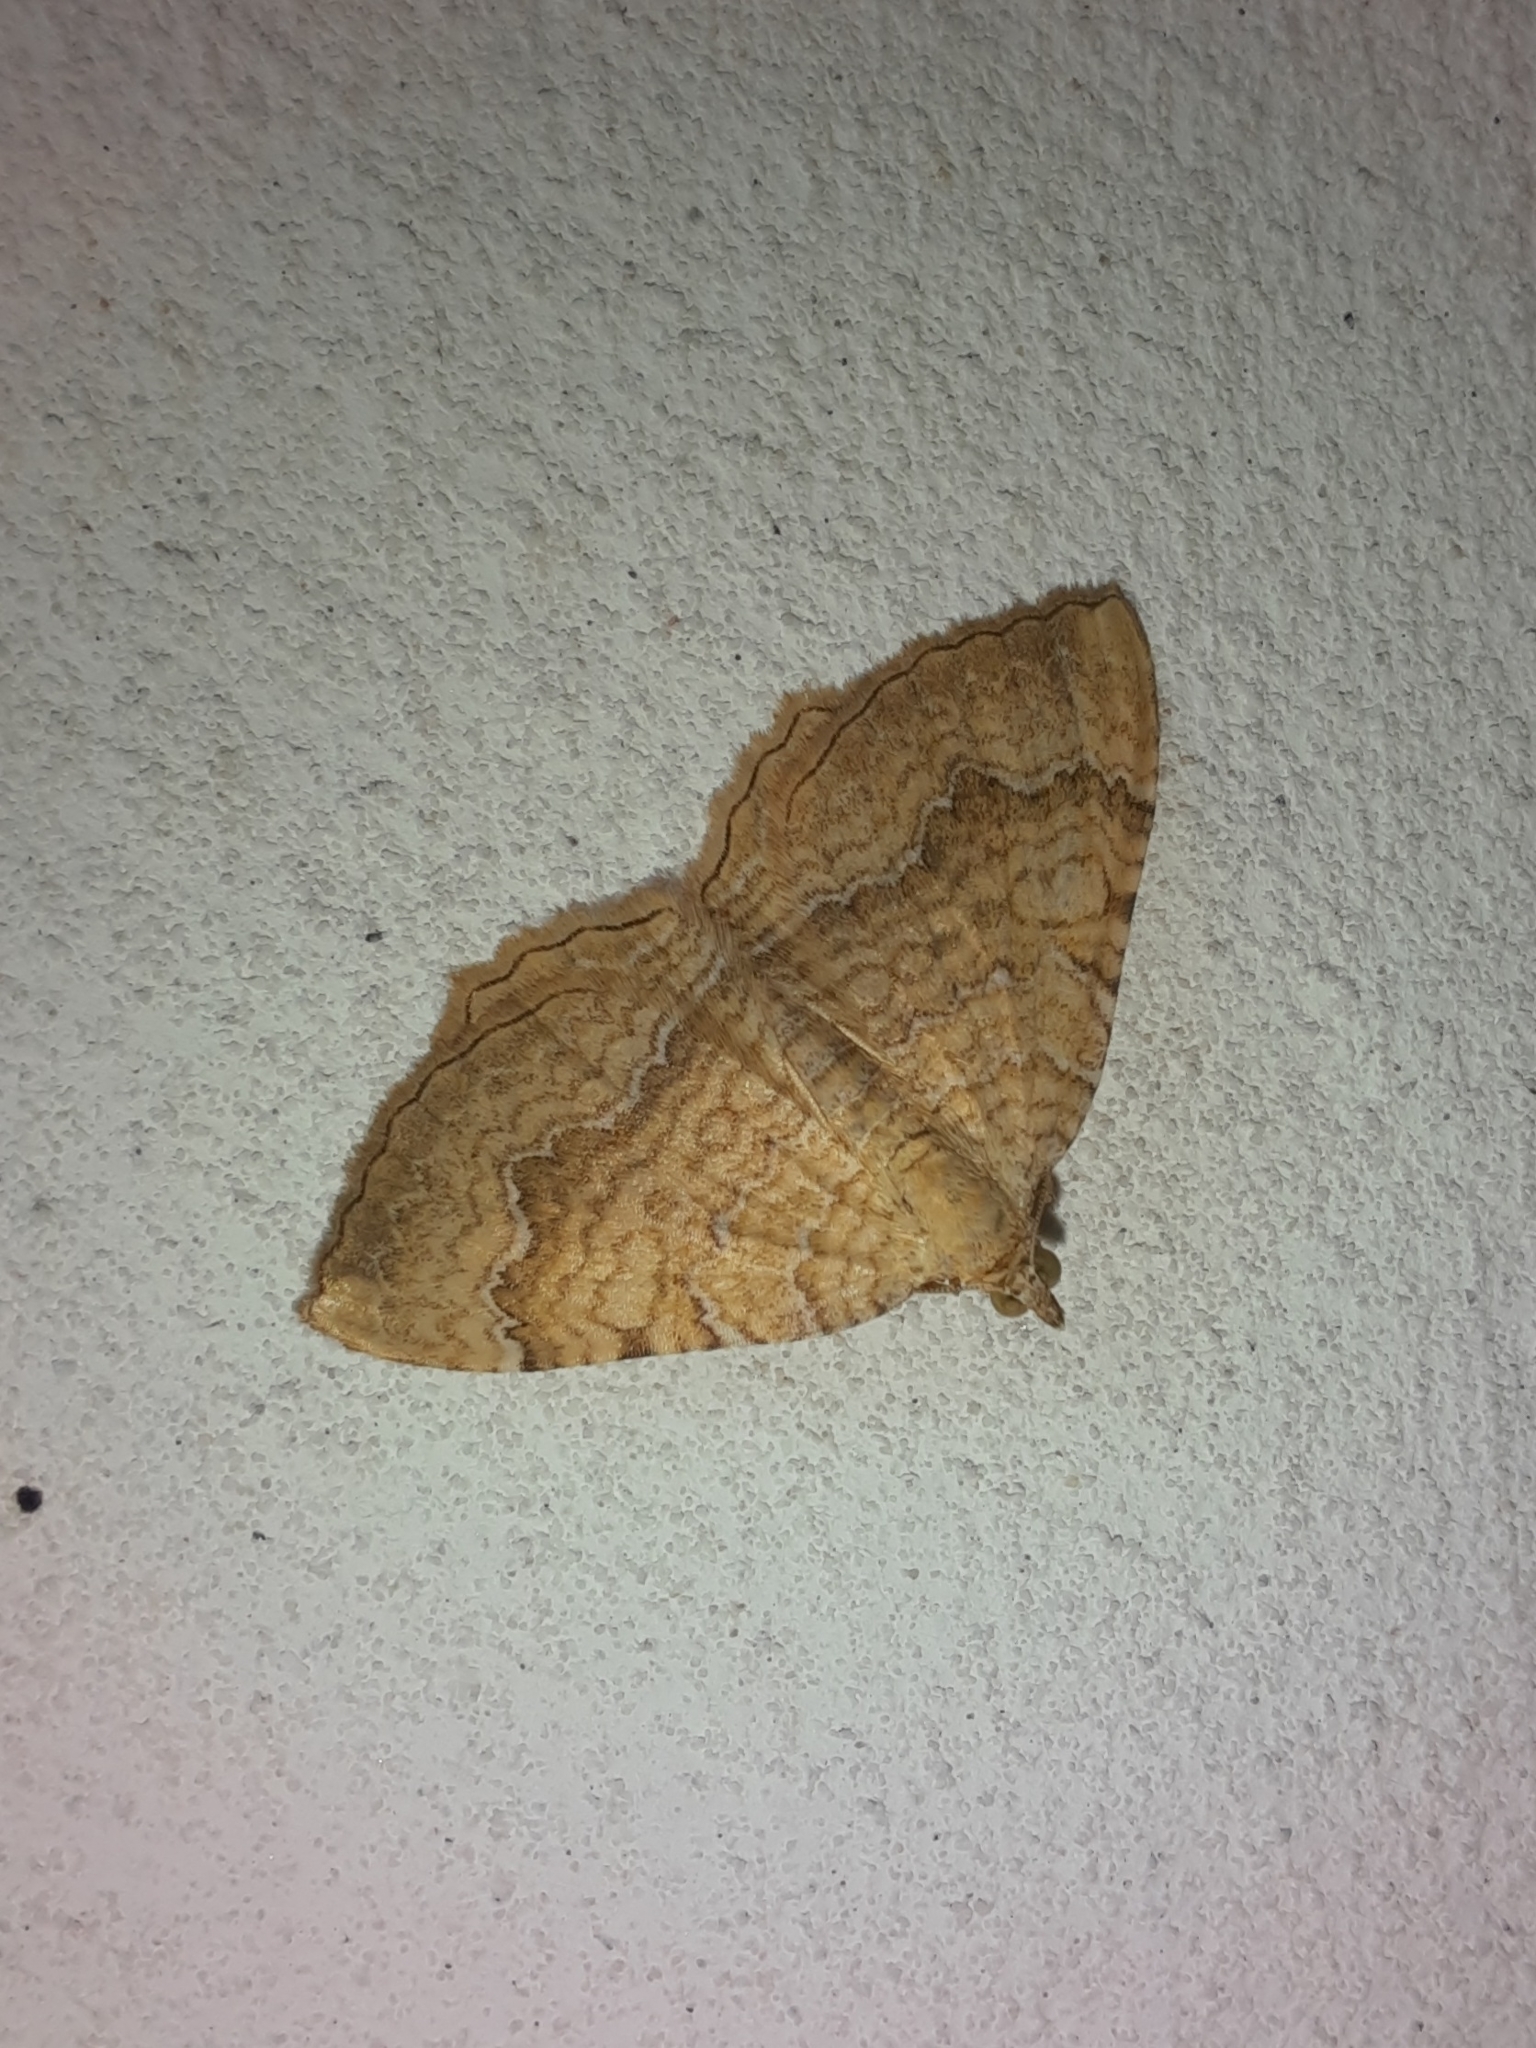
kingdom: Animalia
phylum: Arthropoda
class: Insecta
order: Lepidoptera
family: Geometridae
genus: Camptogramma
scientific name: Camptogramma bilineata
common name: Yellow shell
